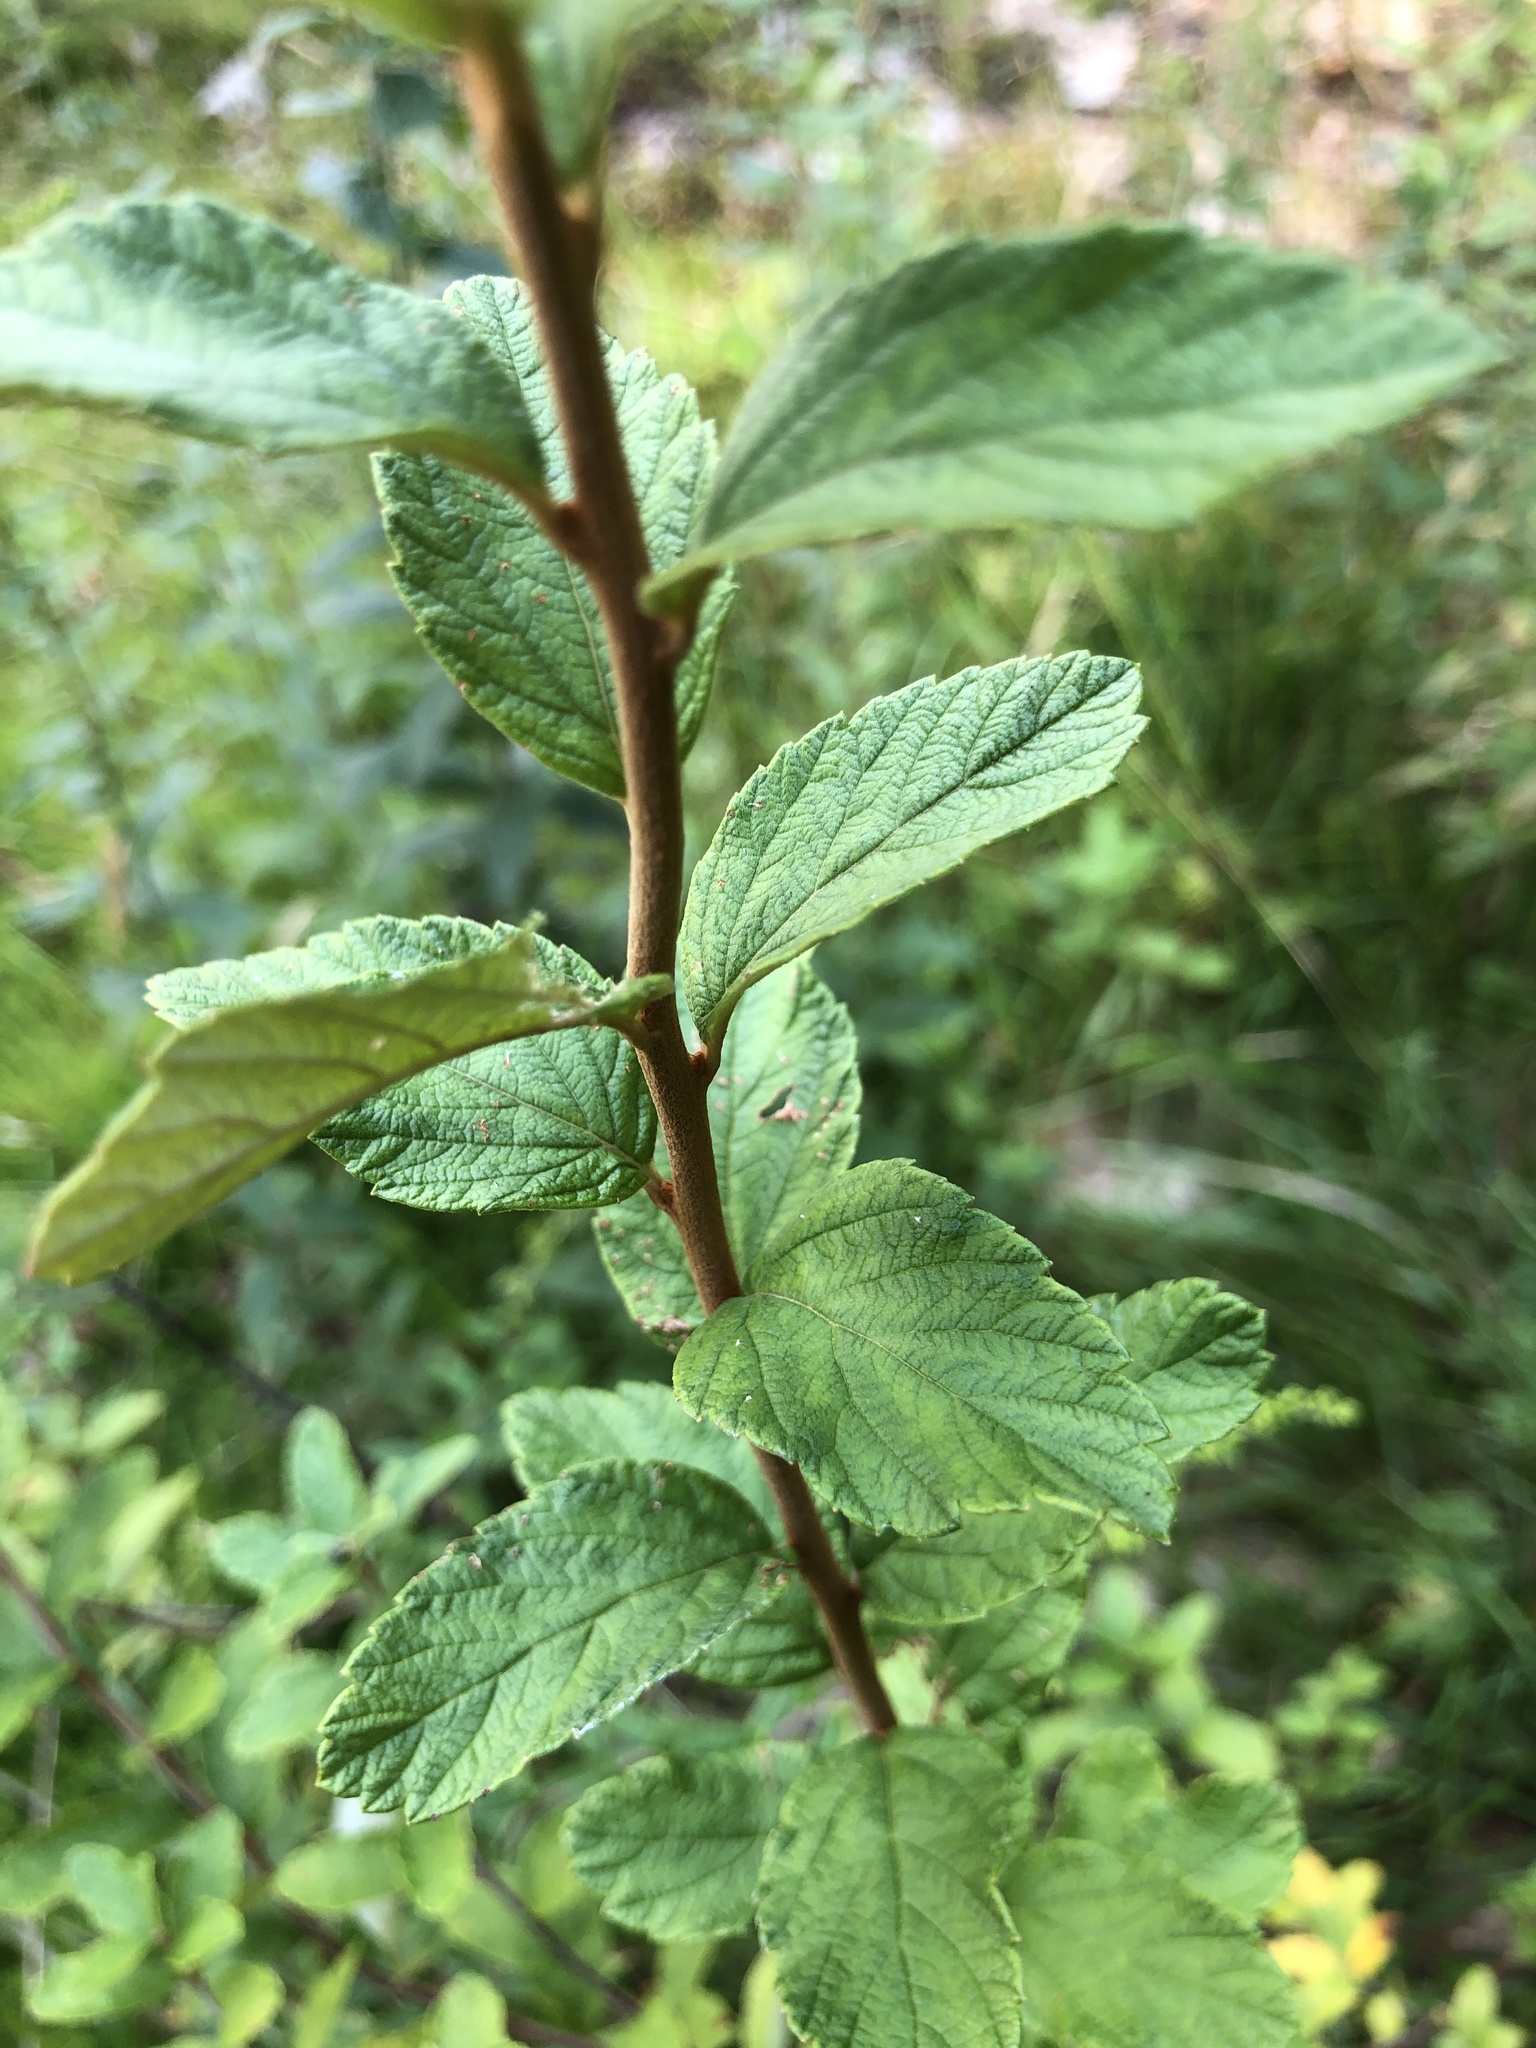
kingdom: Plantae
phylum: Tracheophyta
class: Magnoliopsida
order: Rosales
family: Rosaceae
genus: Spiraea
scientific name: Spiraea tomentosa
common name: Hardhack
